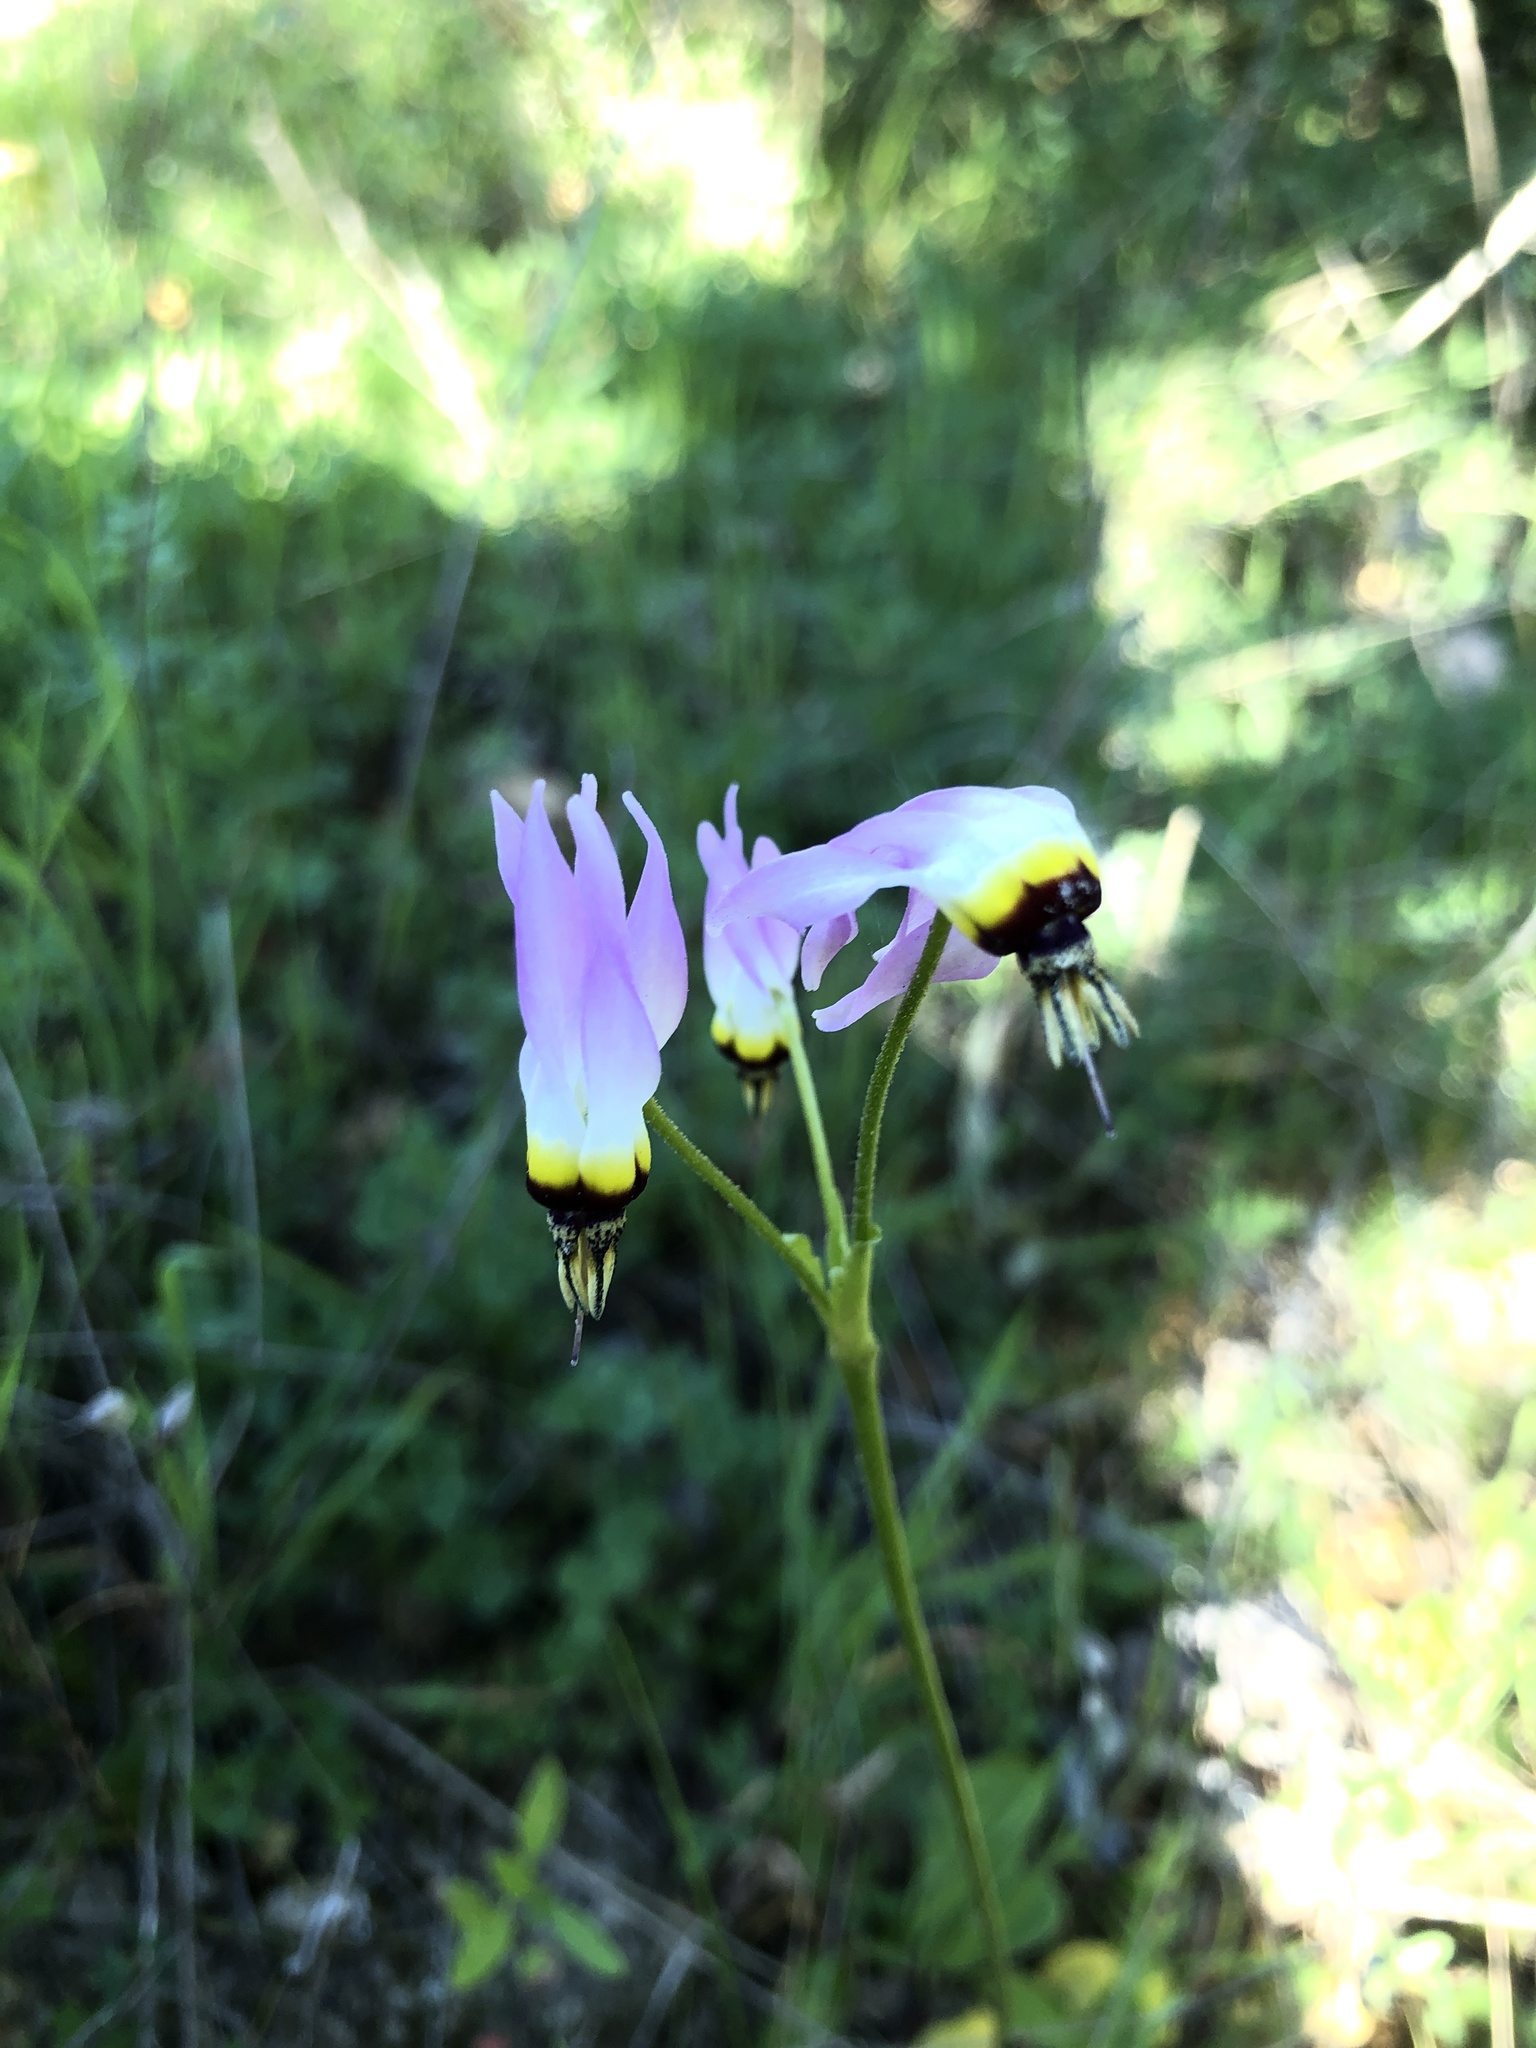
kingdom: Plantae
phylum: Tracheophyta
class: Magnoliopsida
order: Ericales
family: Primulaceae
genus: Dodecatheon
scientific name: Dodecatheon clevelandii
